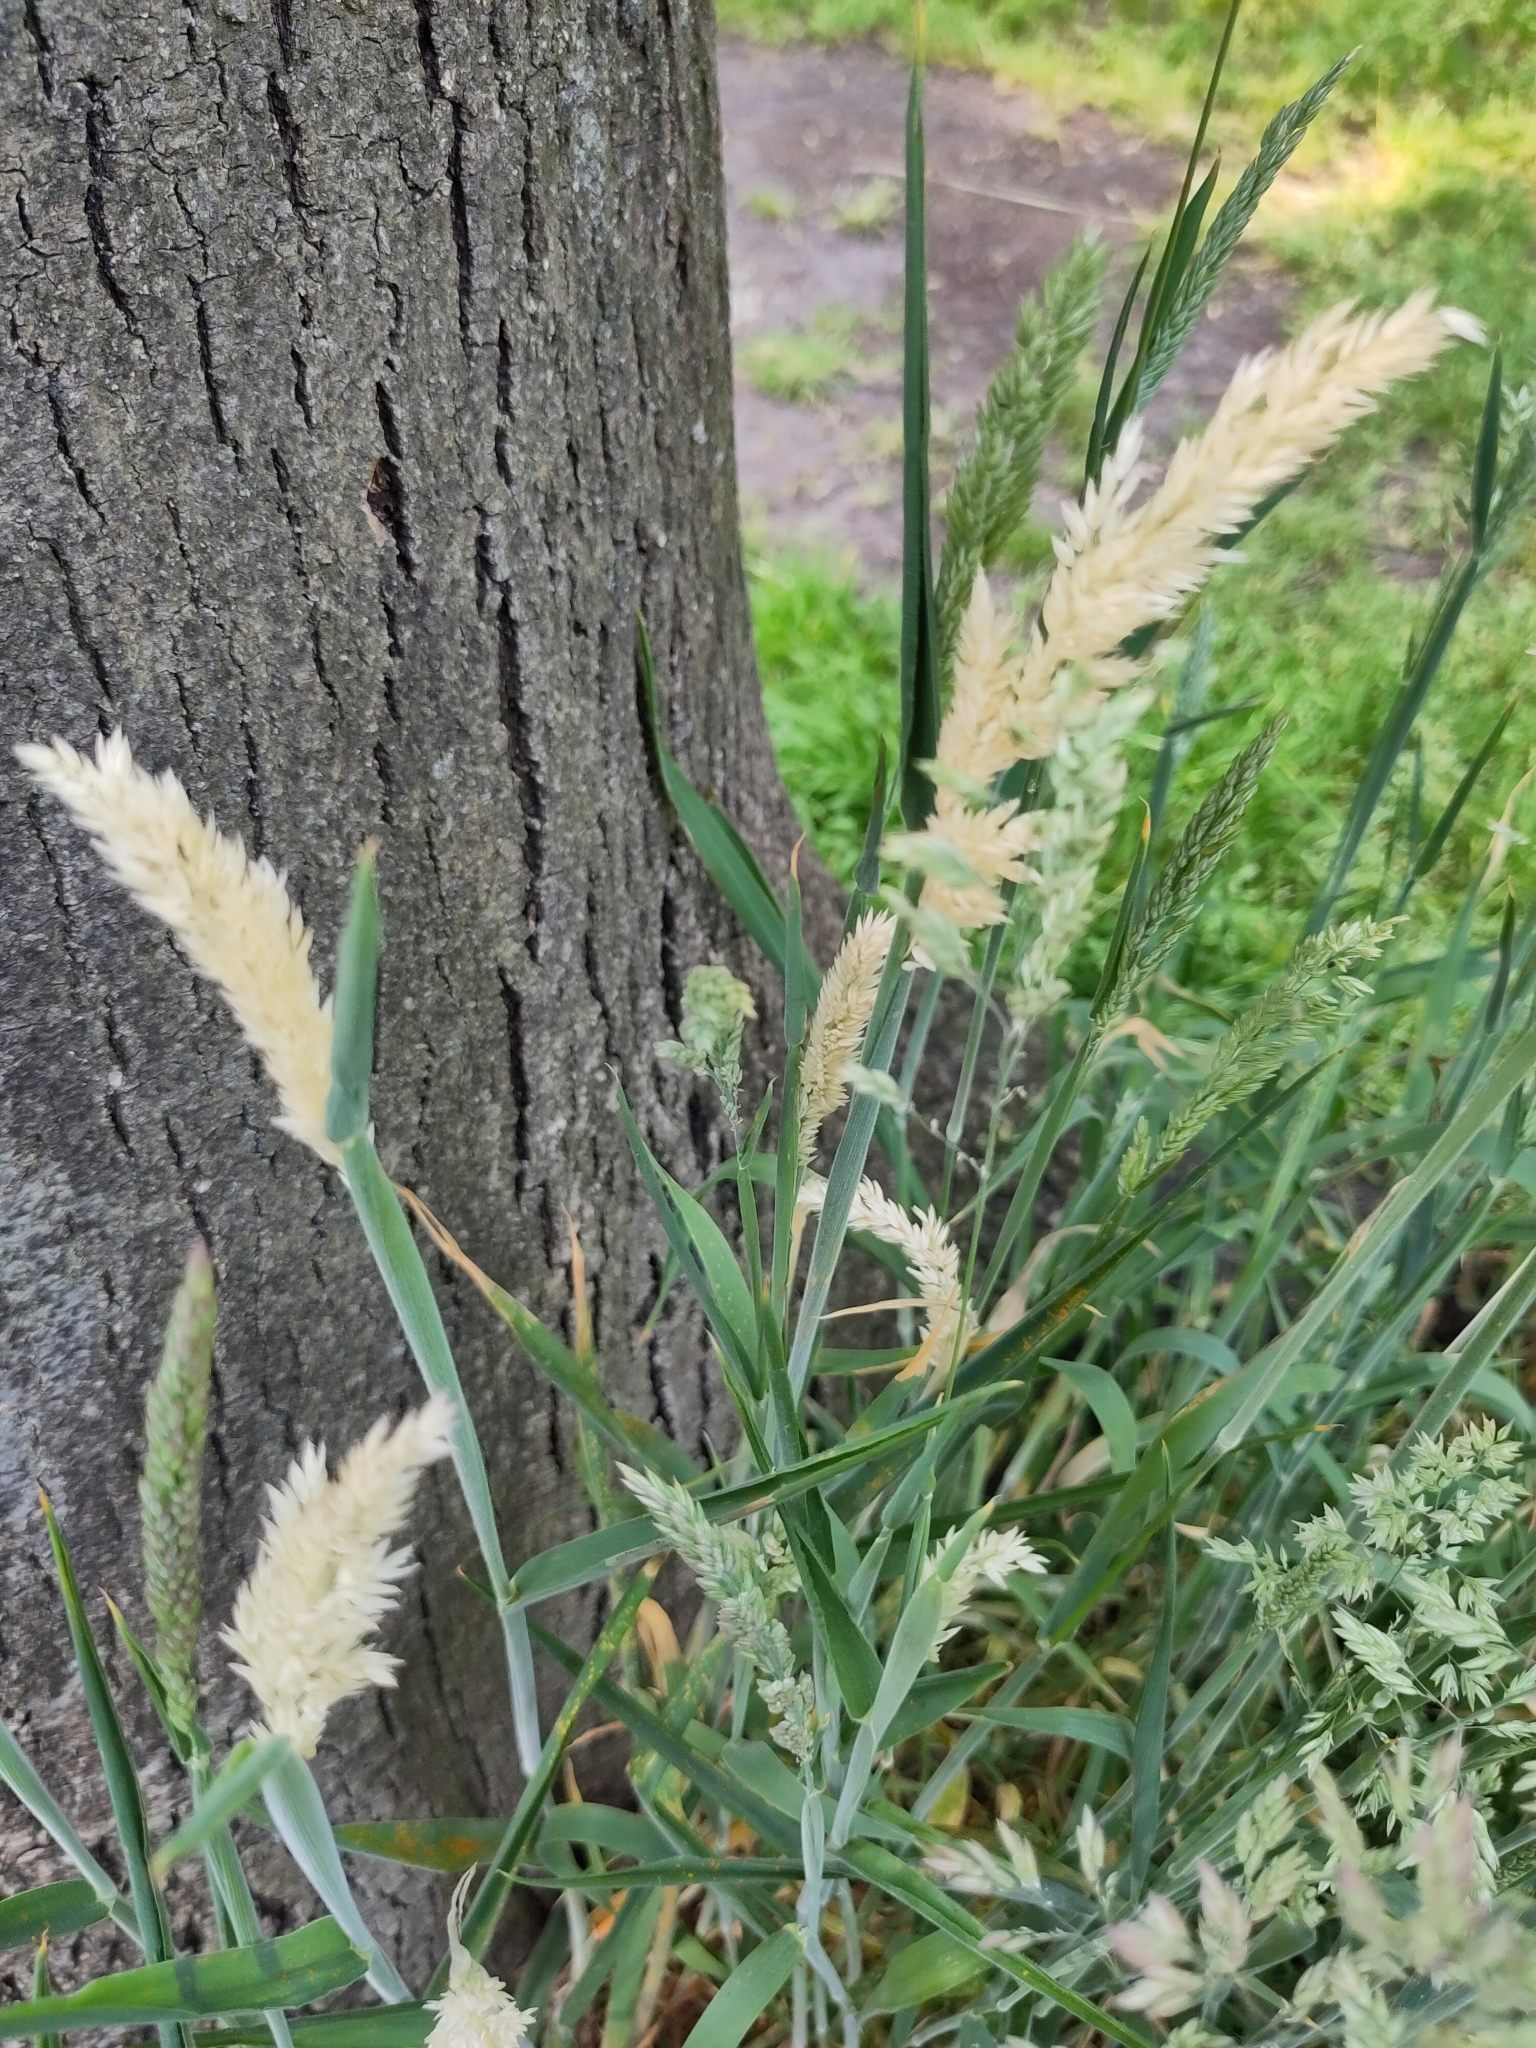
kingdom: Plantae
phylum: Tracheophyta
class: Liliopsida
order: Poales
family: Poaceae
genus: Holcus
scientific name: Holcus lanatus
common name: Yorkshire-fog
